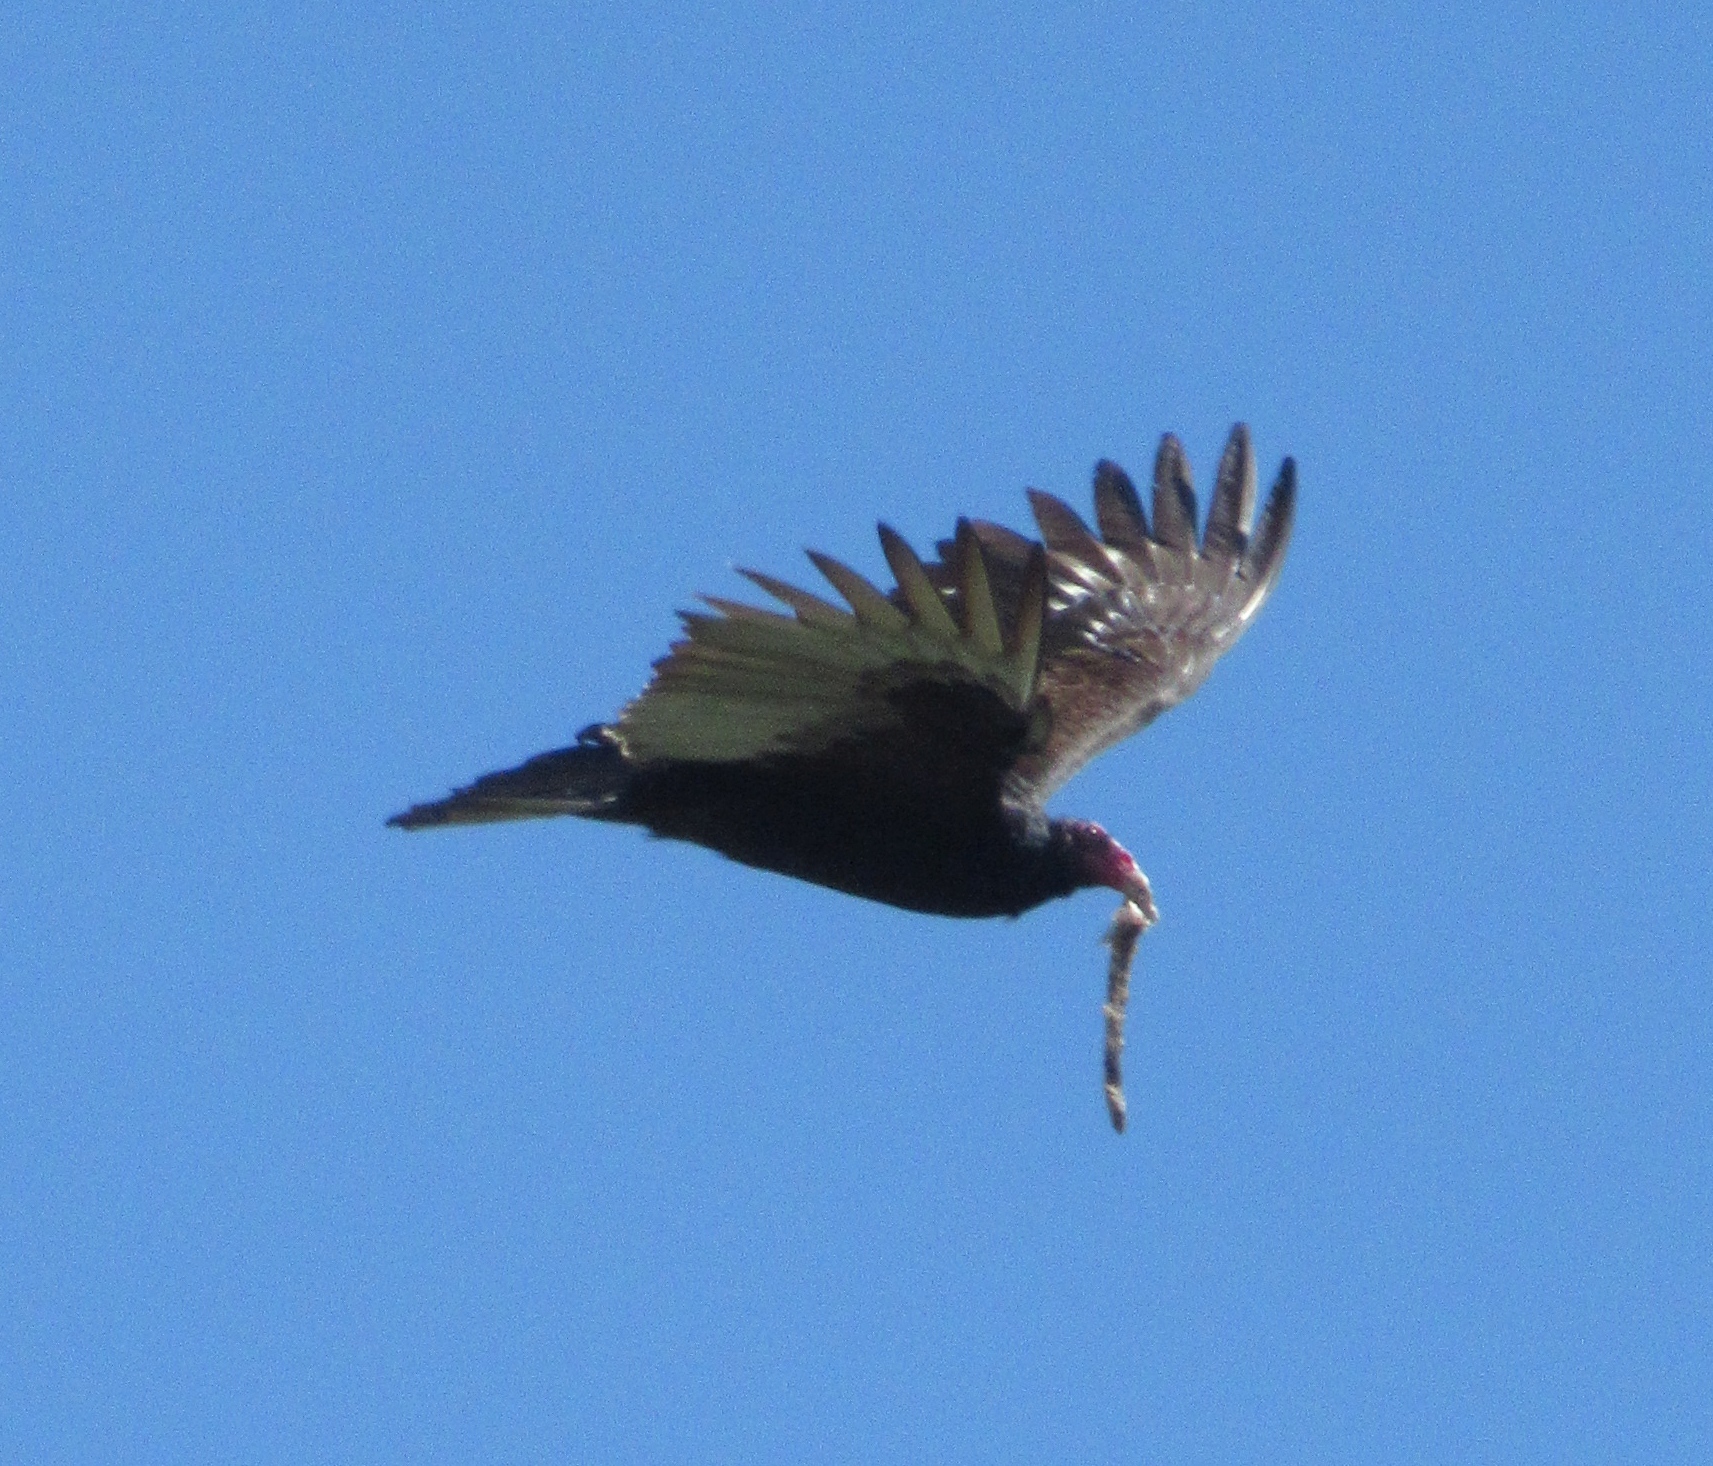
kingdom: Animalia
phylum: Chordata
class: Aves
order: Accipitriformes
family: Cathartidae
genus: Cathartes
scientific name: Cathartes aura
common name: Turkey vulture
